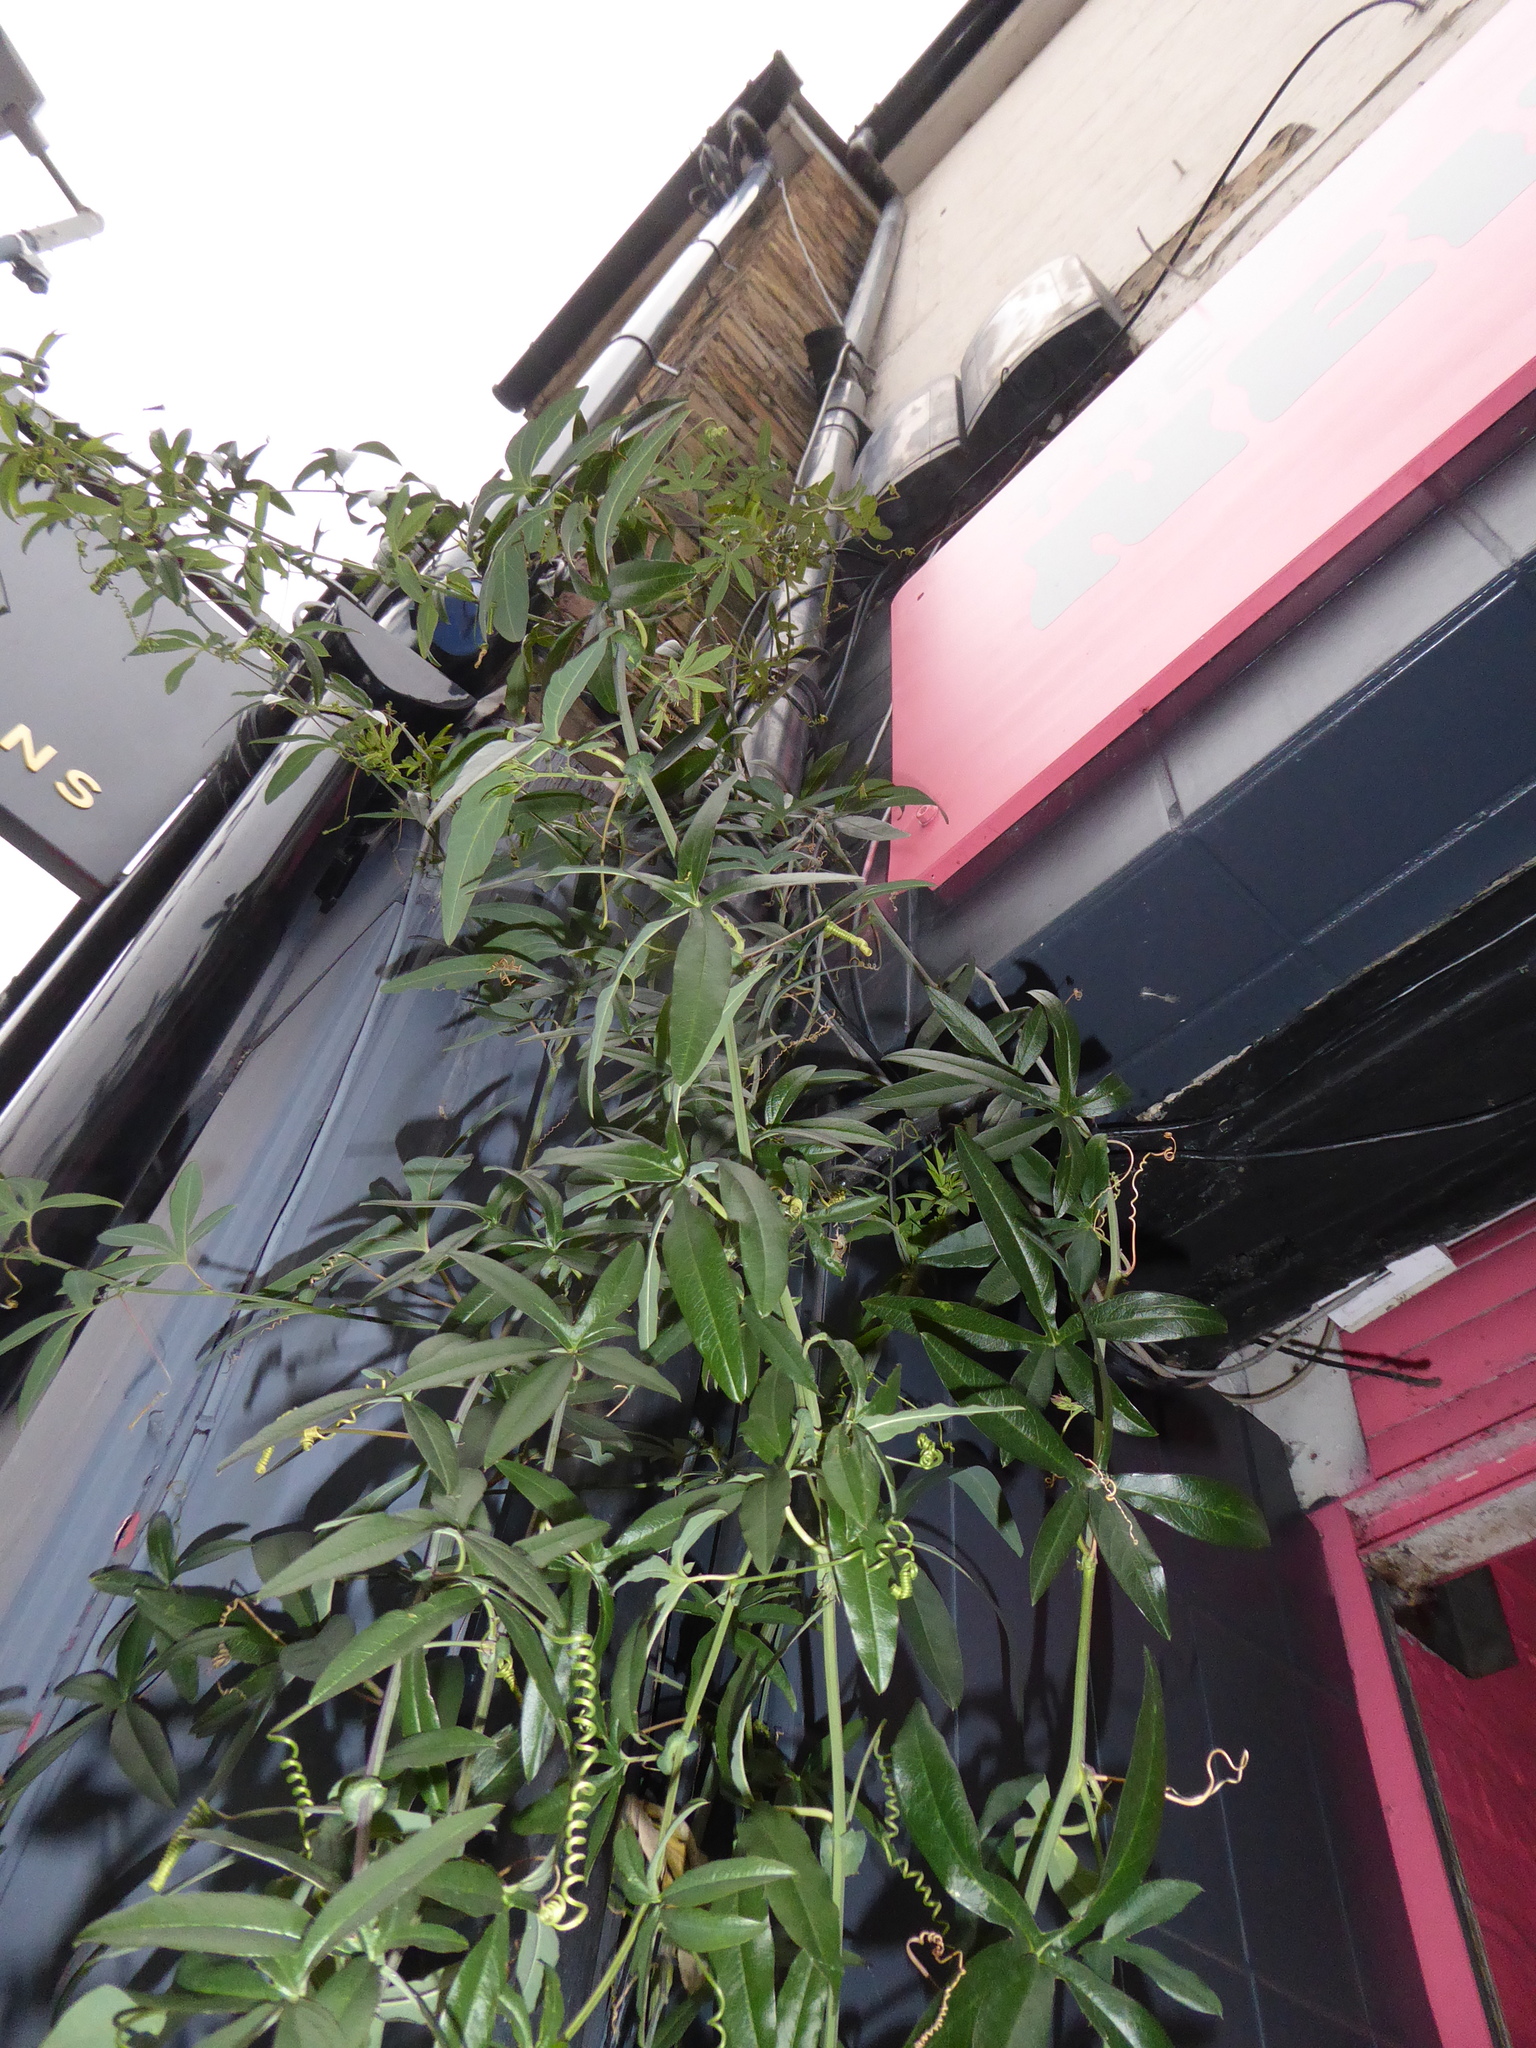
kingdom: Plantae
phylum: Tracheophyta
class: Magnoliopsida
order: Malpighiales
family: Passifloraceae
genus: Passiflora
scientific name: Passiflora caerulea
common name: Blue passionflower
